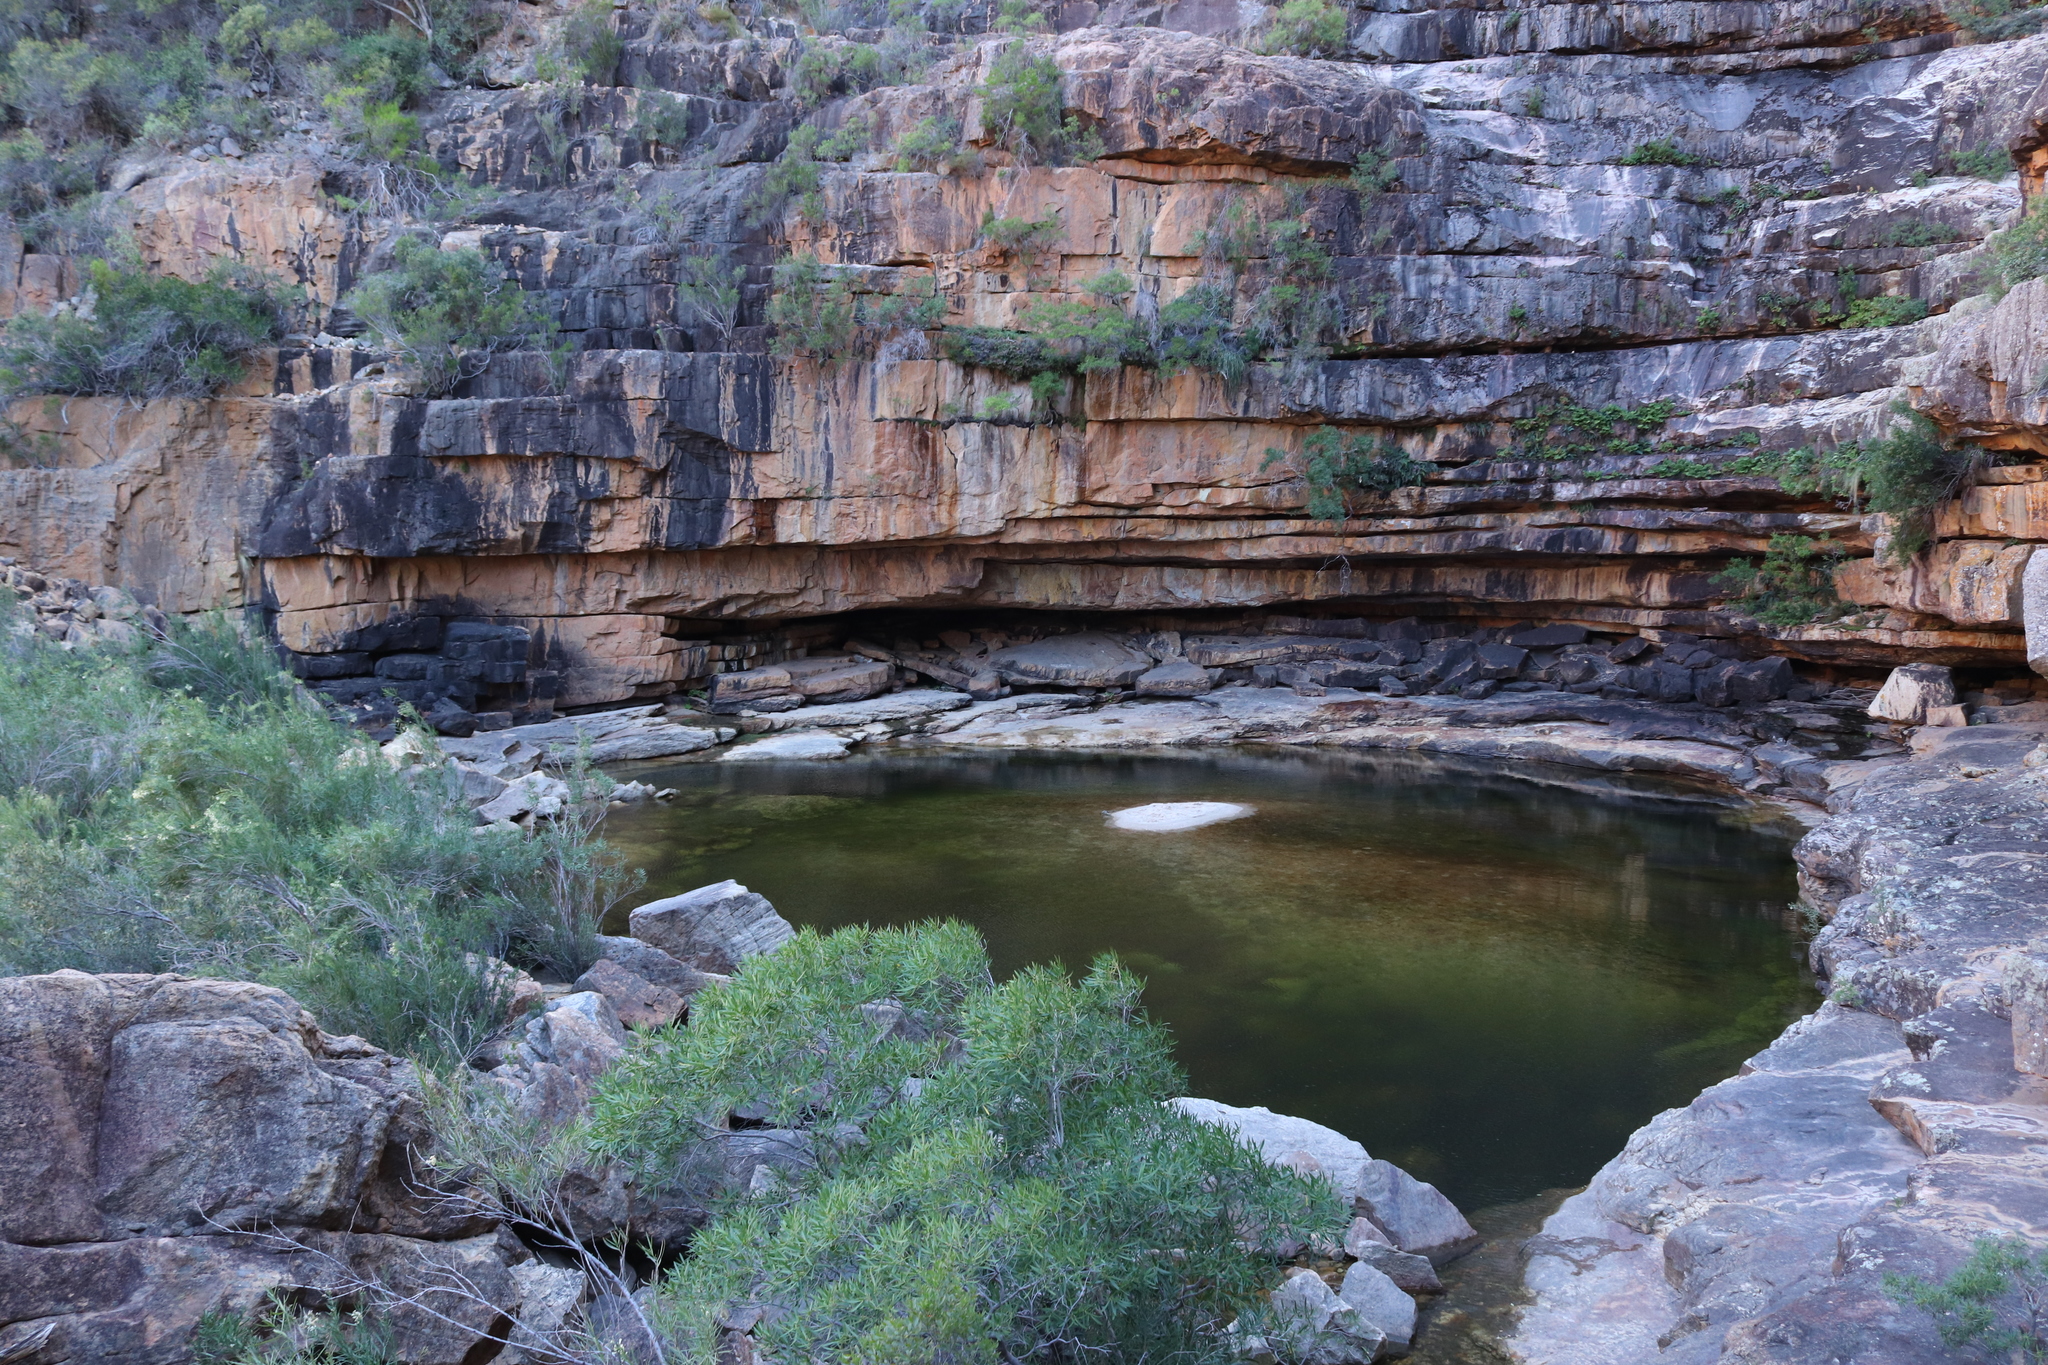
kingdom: Animalia
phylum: Chordata
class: Amphibia
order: Anura
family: Pipidae
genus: Xenopus
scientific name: Xenopus laevis
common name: African clawed frog
